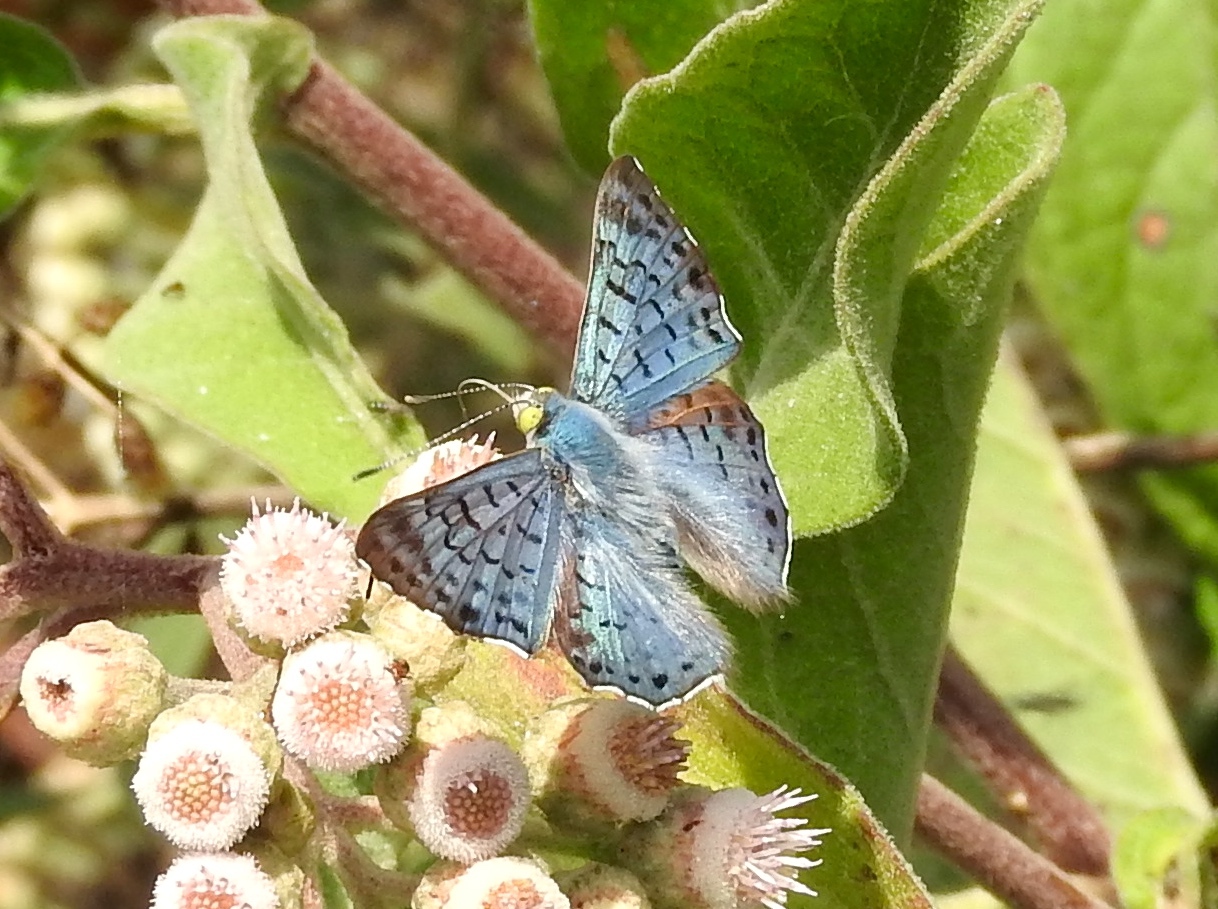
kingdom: Animalia
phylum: Arthropoda
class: Insecta
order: Lepidoptera
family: Riodinidae
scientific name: Riodinidae
